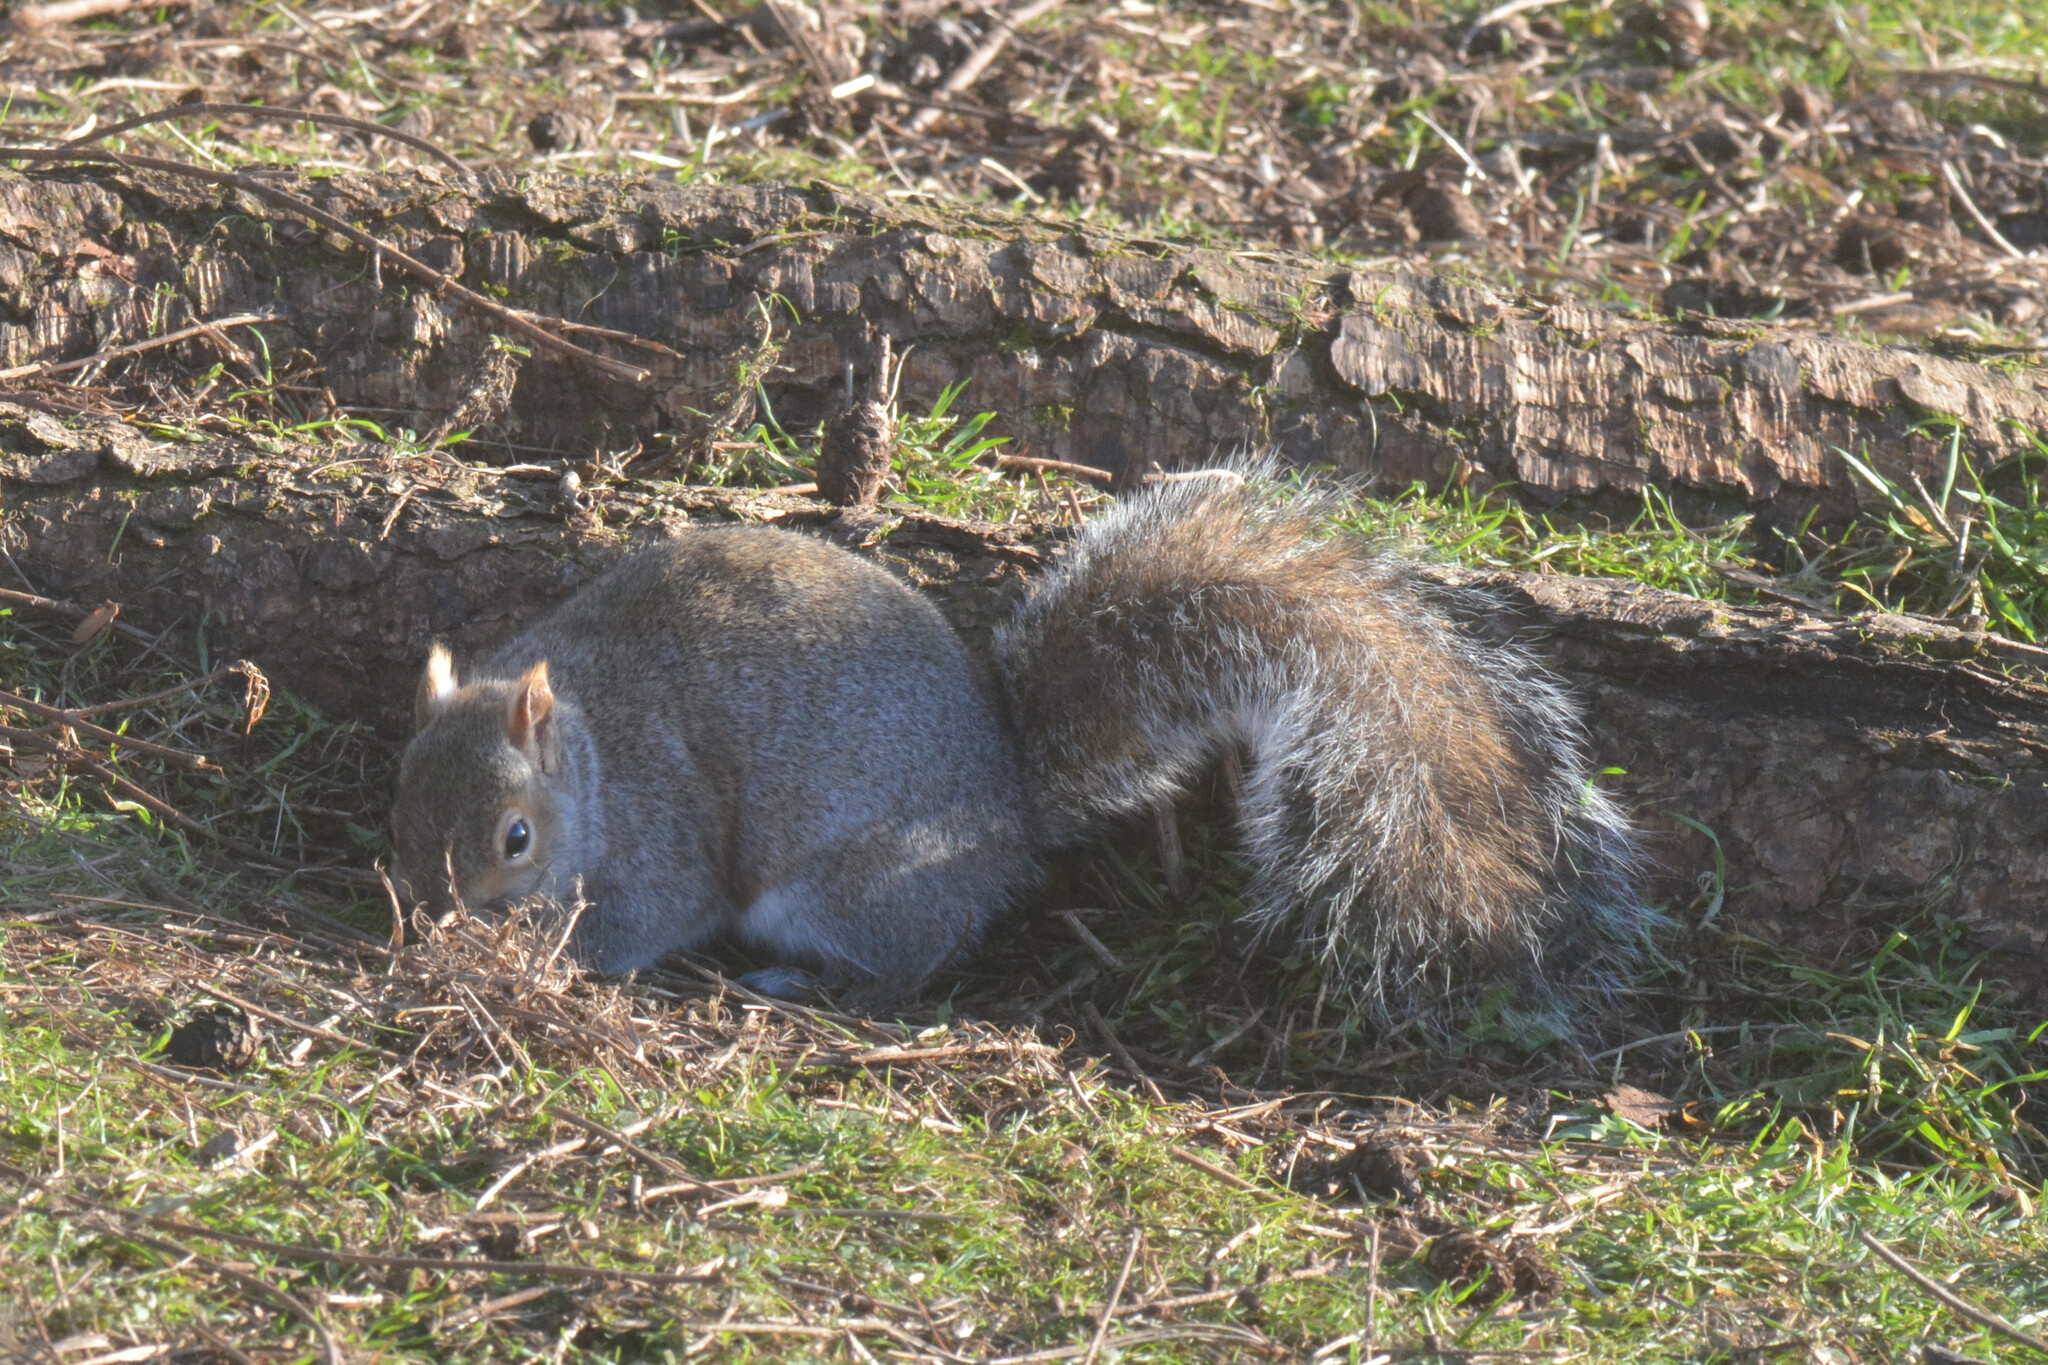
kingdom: Animalia
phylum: Chordata
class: Mammalia
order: Rodentia
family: Sciuridae
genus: Sciurus
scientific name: Sciurus carolinensis
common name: Eastern gray squirrel
